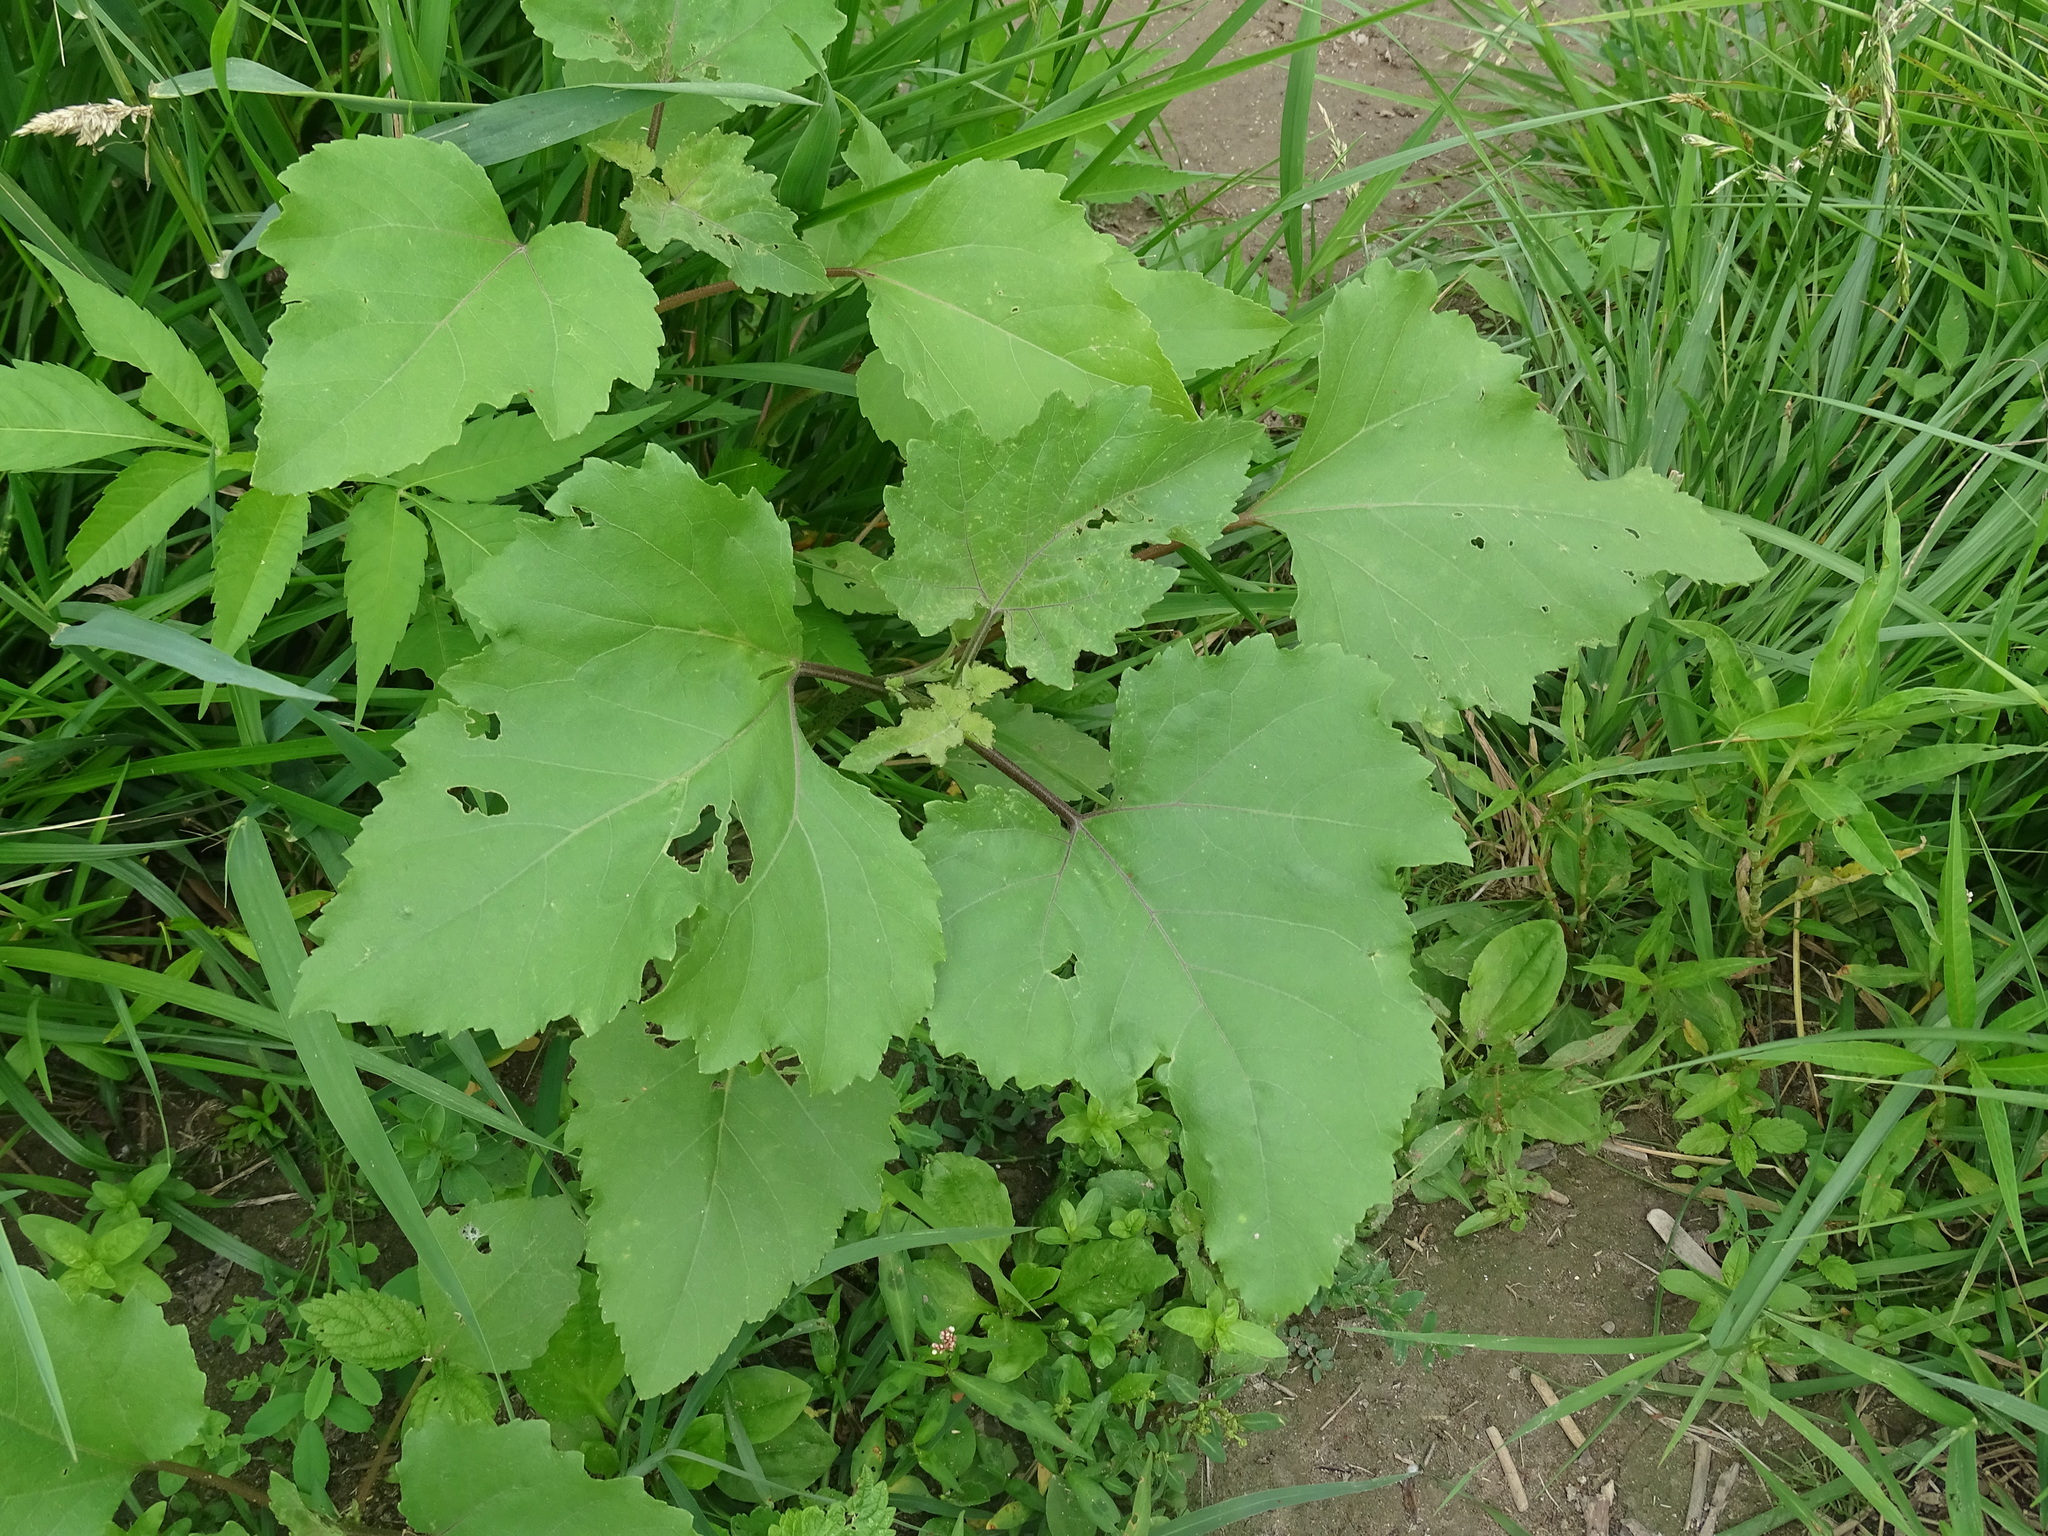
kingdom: Plantae
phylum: Tracheophyta
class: Magnoliopsida
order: Asterales
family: Asteraceae
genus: Xanthium
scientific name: Xanthium strumarium
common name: Rough cocklebur
